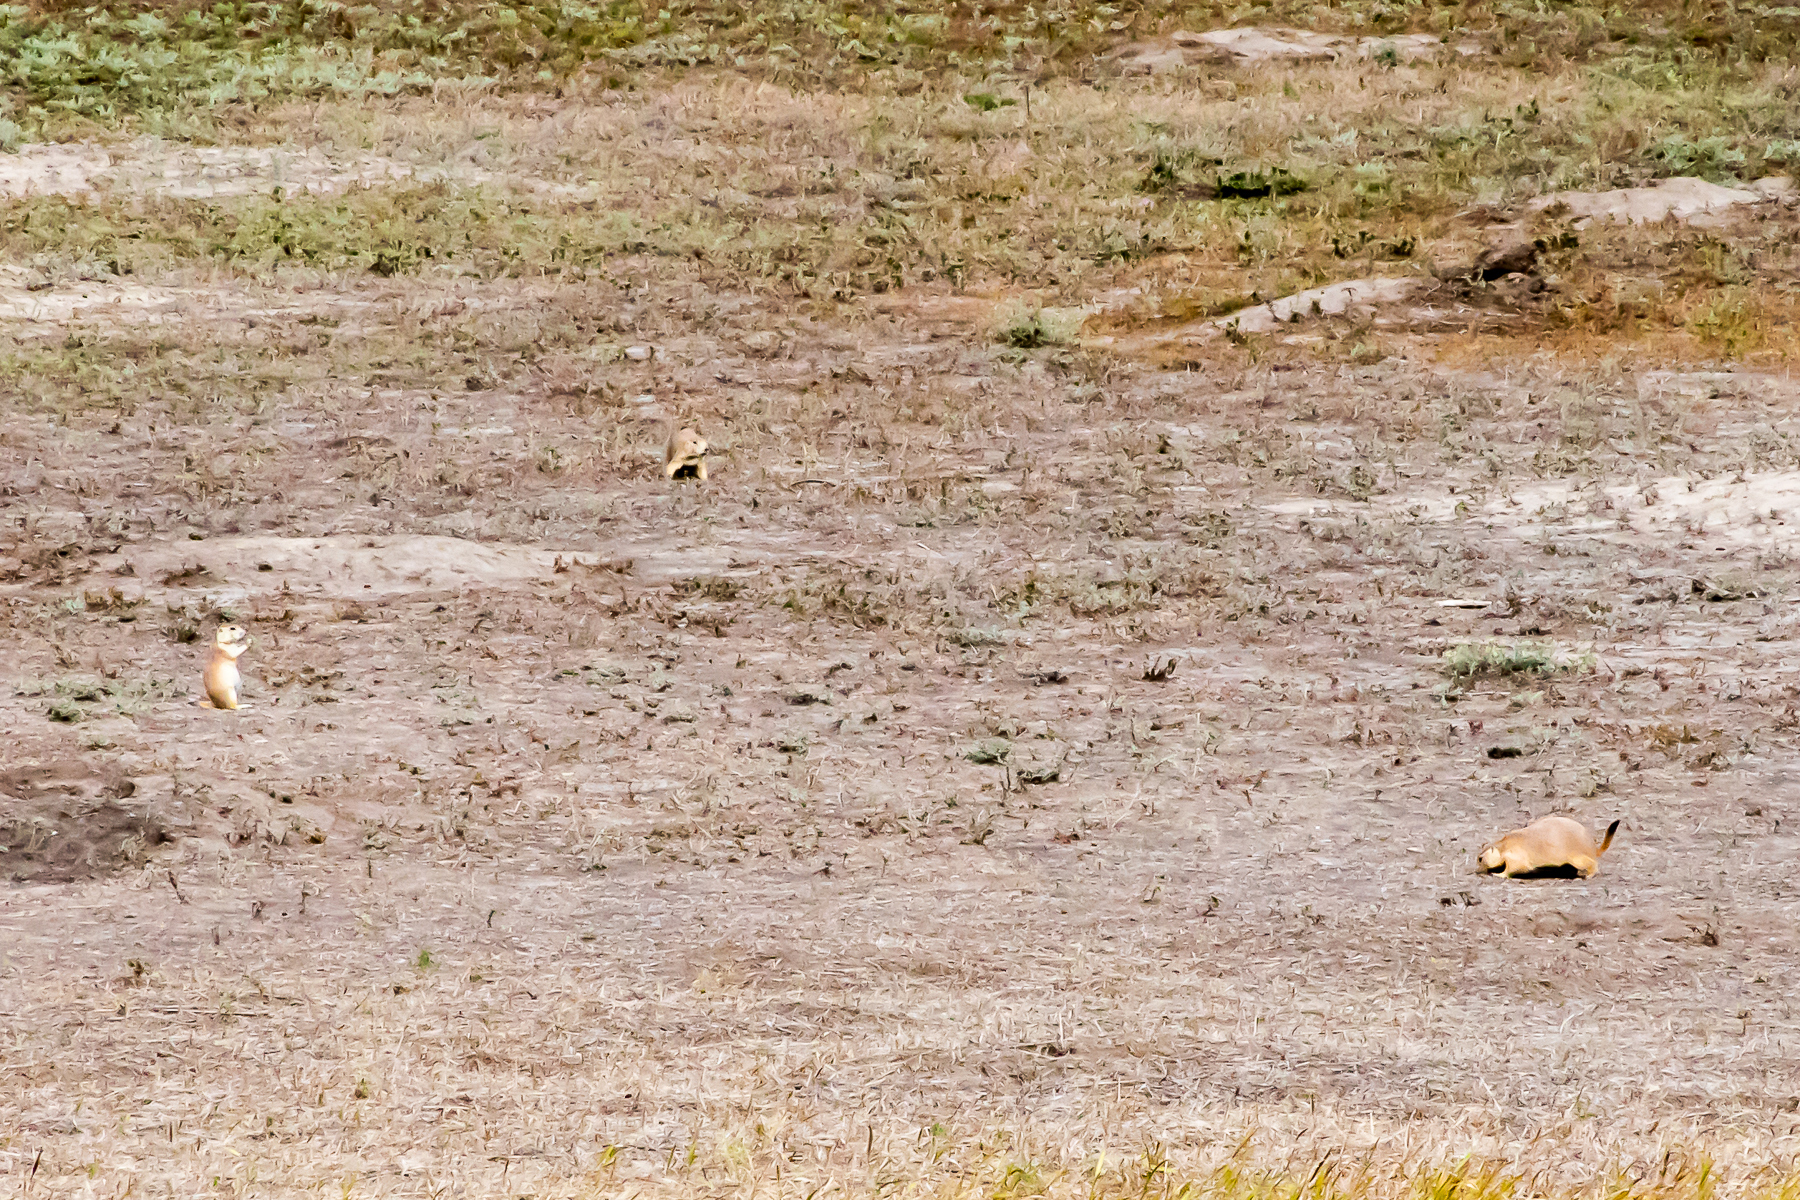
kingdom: Animalia
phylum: Chordata
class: Mammalia
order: Rodentia
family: Sciuridae
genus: Cynomys
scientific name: Cynomys ludovicianus
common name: Black-tailed prairie dog
